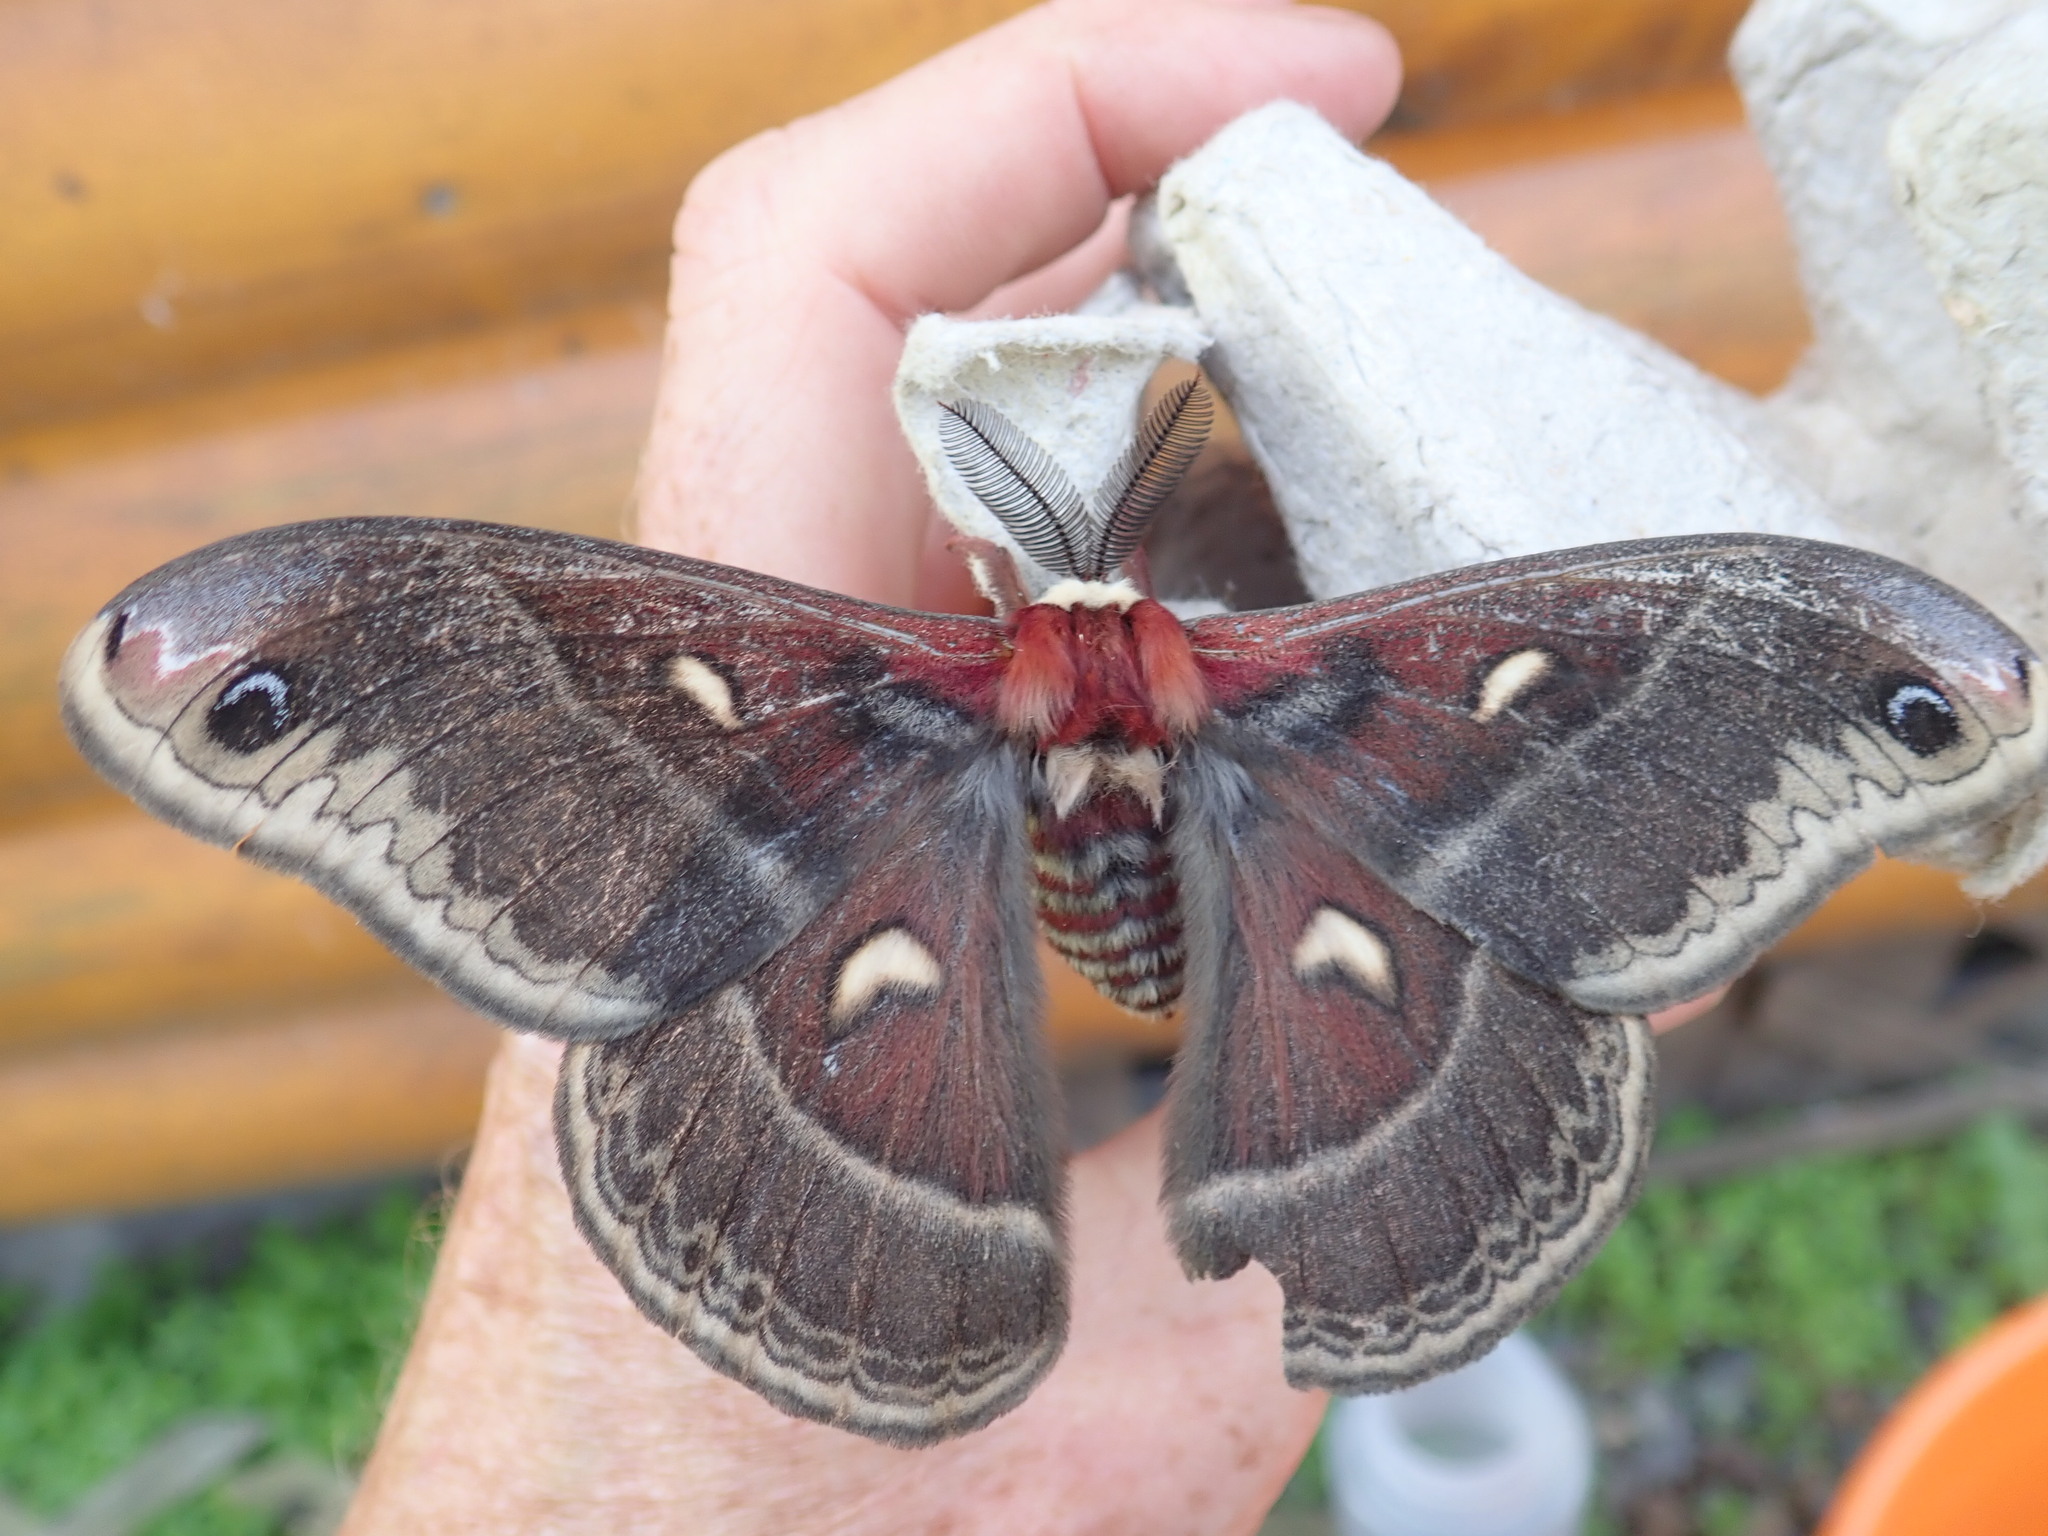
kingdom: Animalia
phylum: Arthropoda
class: Insecta
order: Lepidoptera
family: Saturniidae
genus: Hyalophora
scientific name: Hyalophora columbia
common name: Columbia silkmoth
